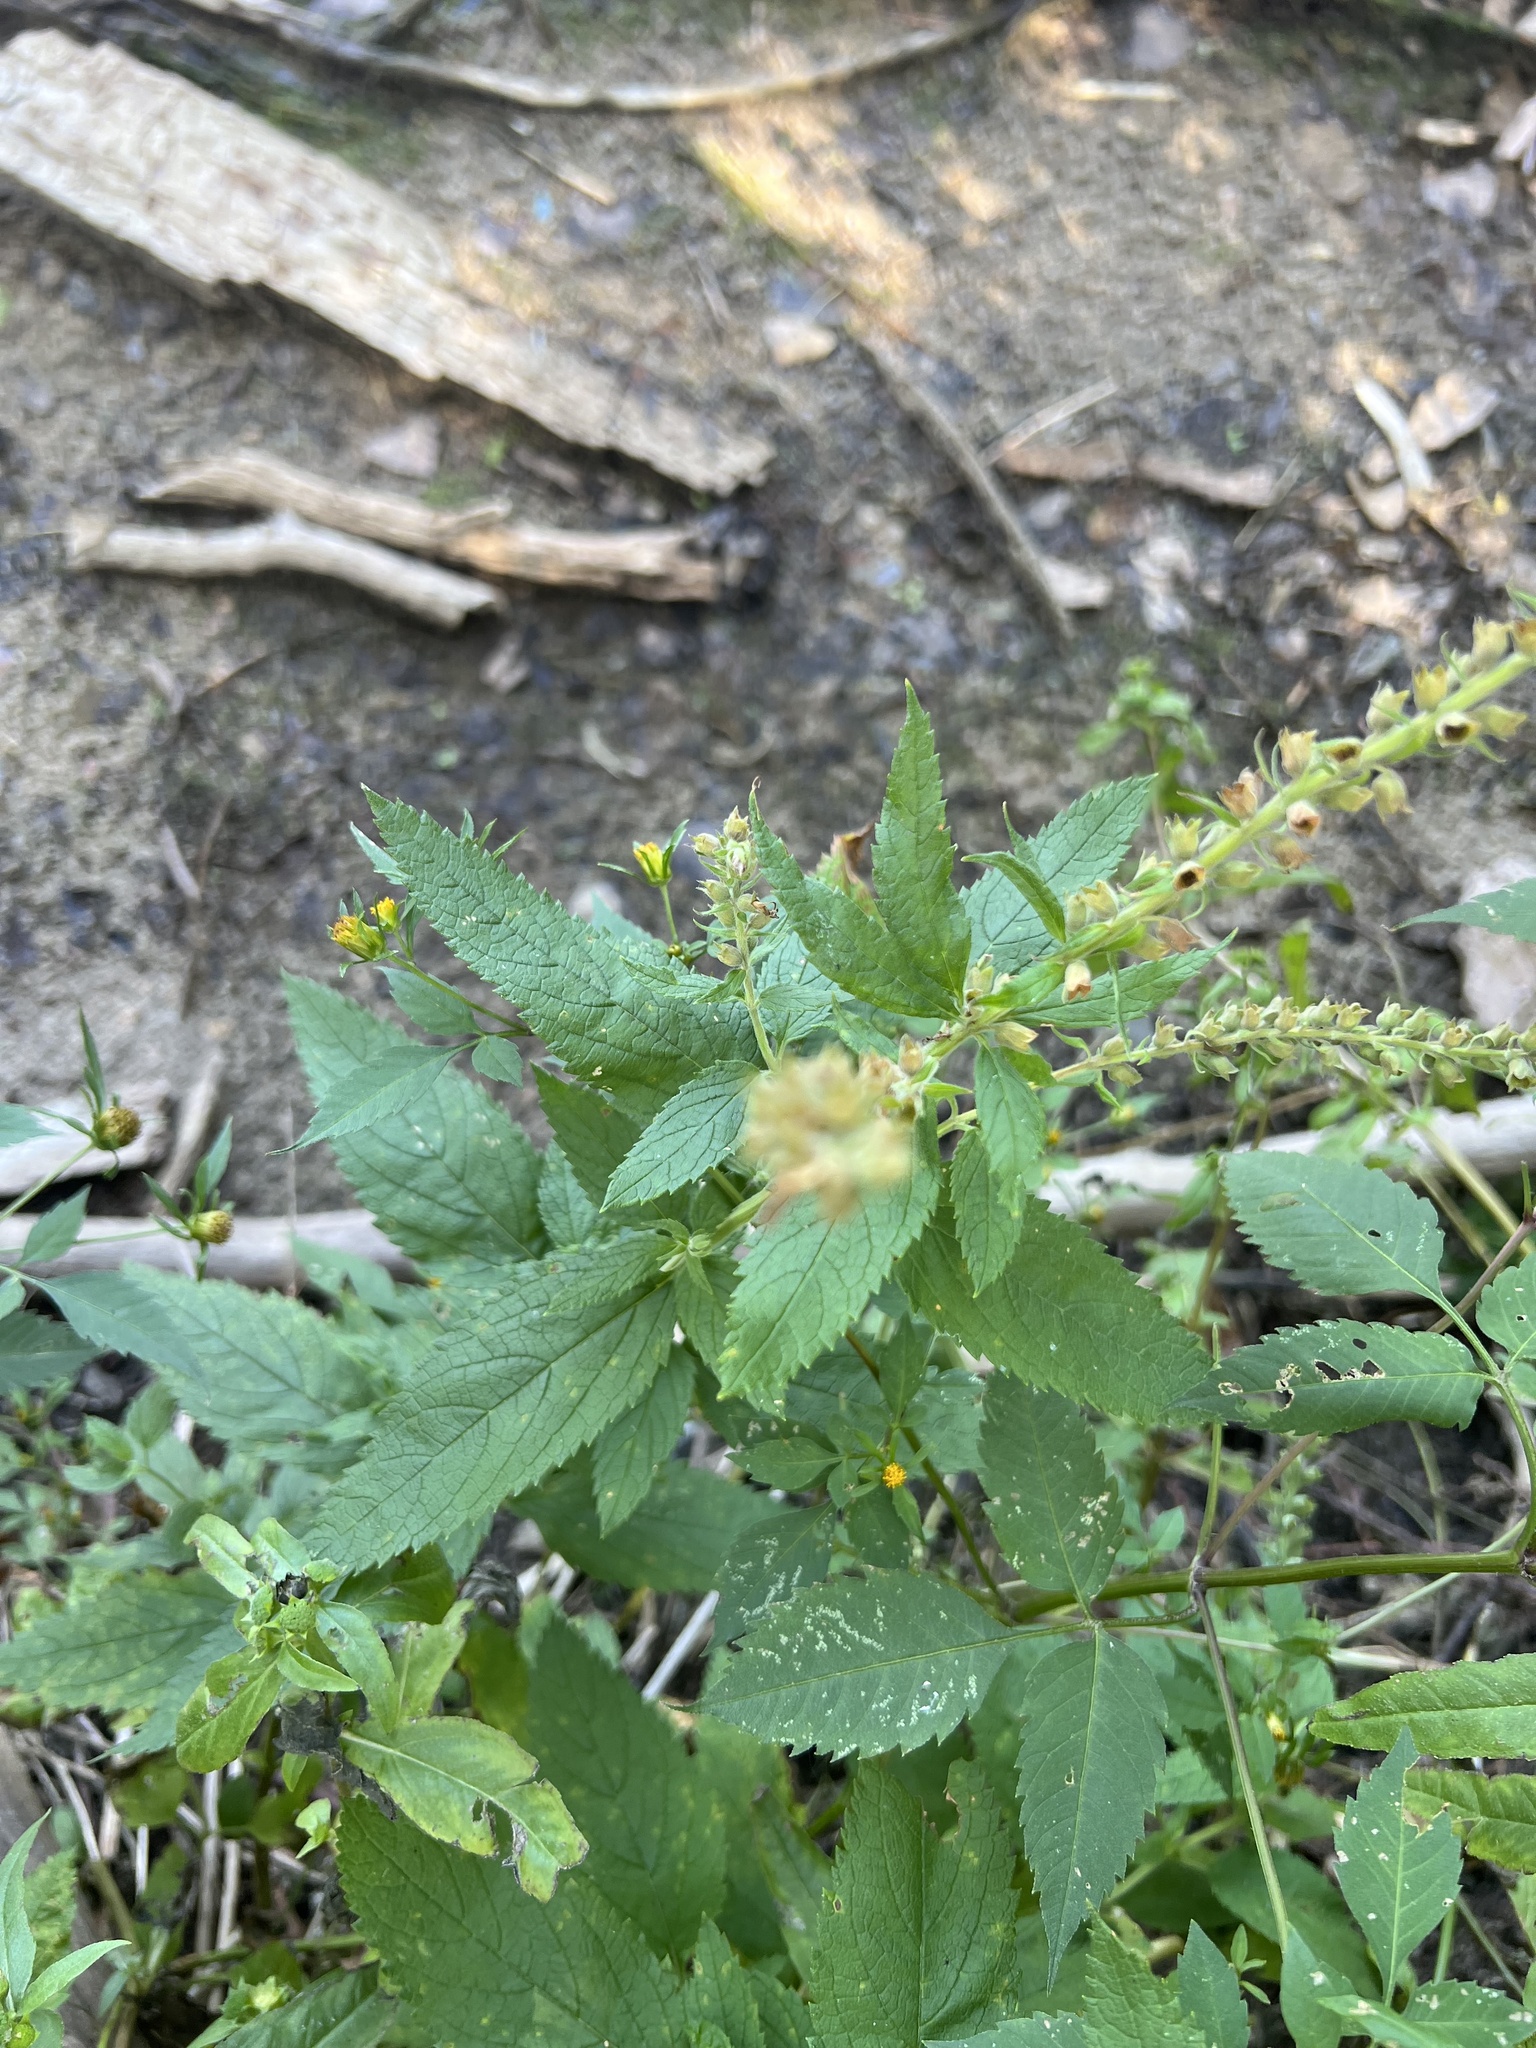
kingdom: Plantae
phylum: Tracheophyta
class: Magnoliopsida
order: Lamiales
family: Lamiaceae
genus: Teucrium
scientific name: Teucrium canadense
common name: American germander
